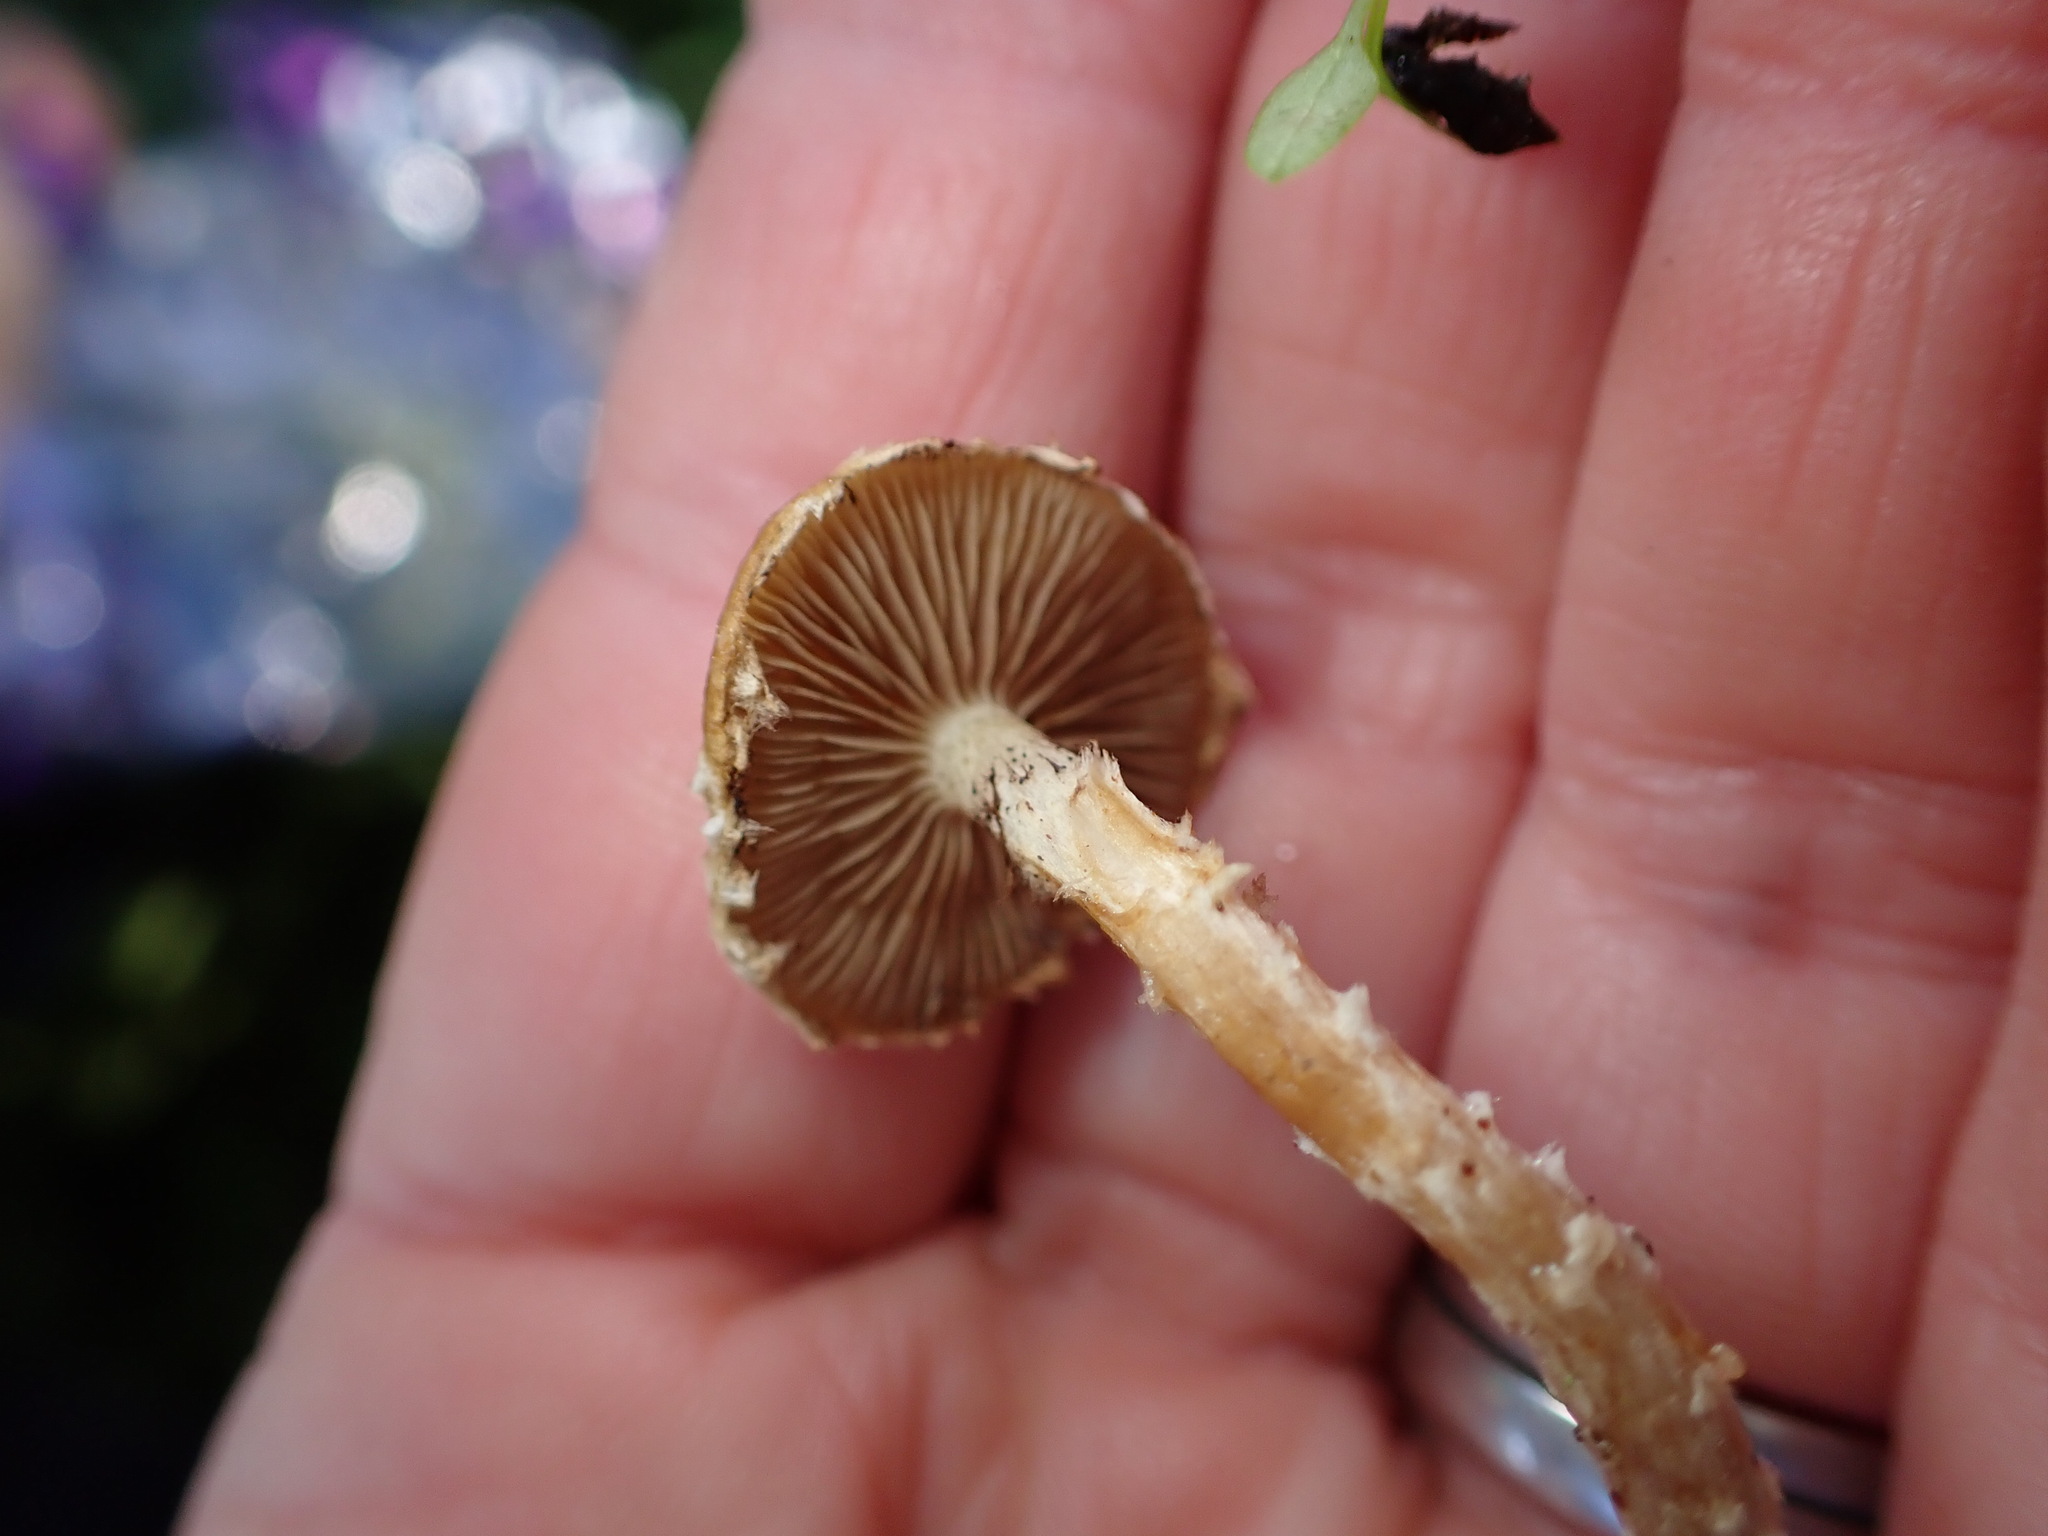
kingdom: Fungi
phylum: Basidiomycota
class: Agaricomycetes
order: Agaricales
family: Strophariaceae
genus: Pholiota
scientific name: Pholiota gummosa
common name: Sticky scalycap
